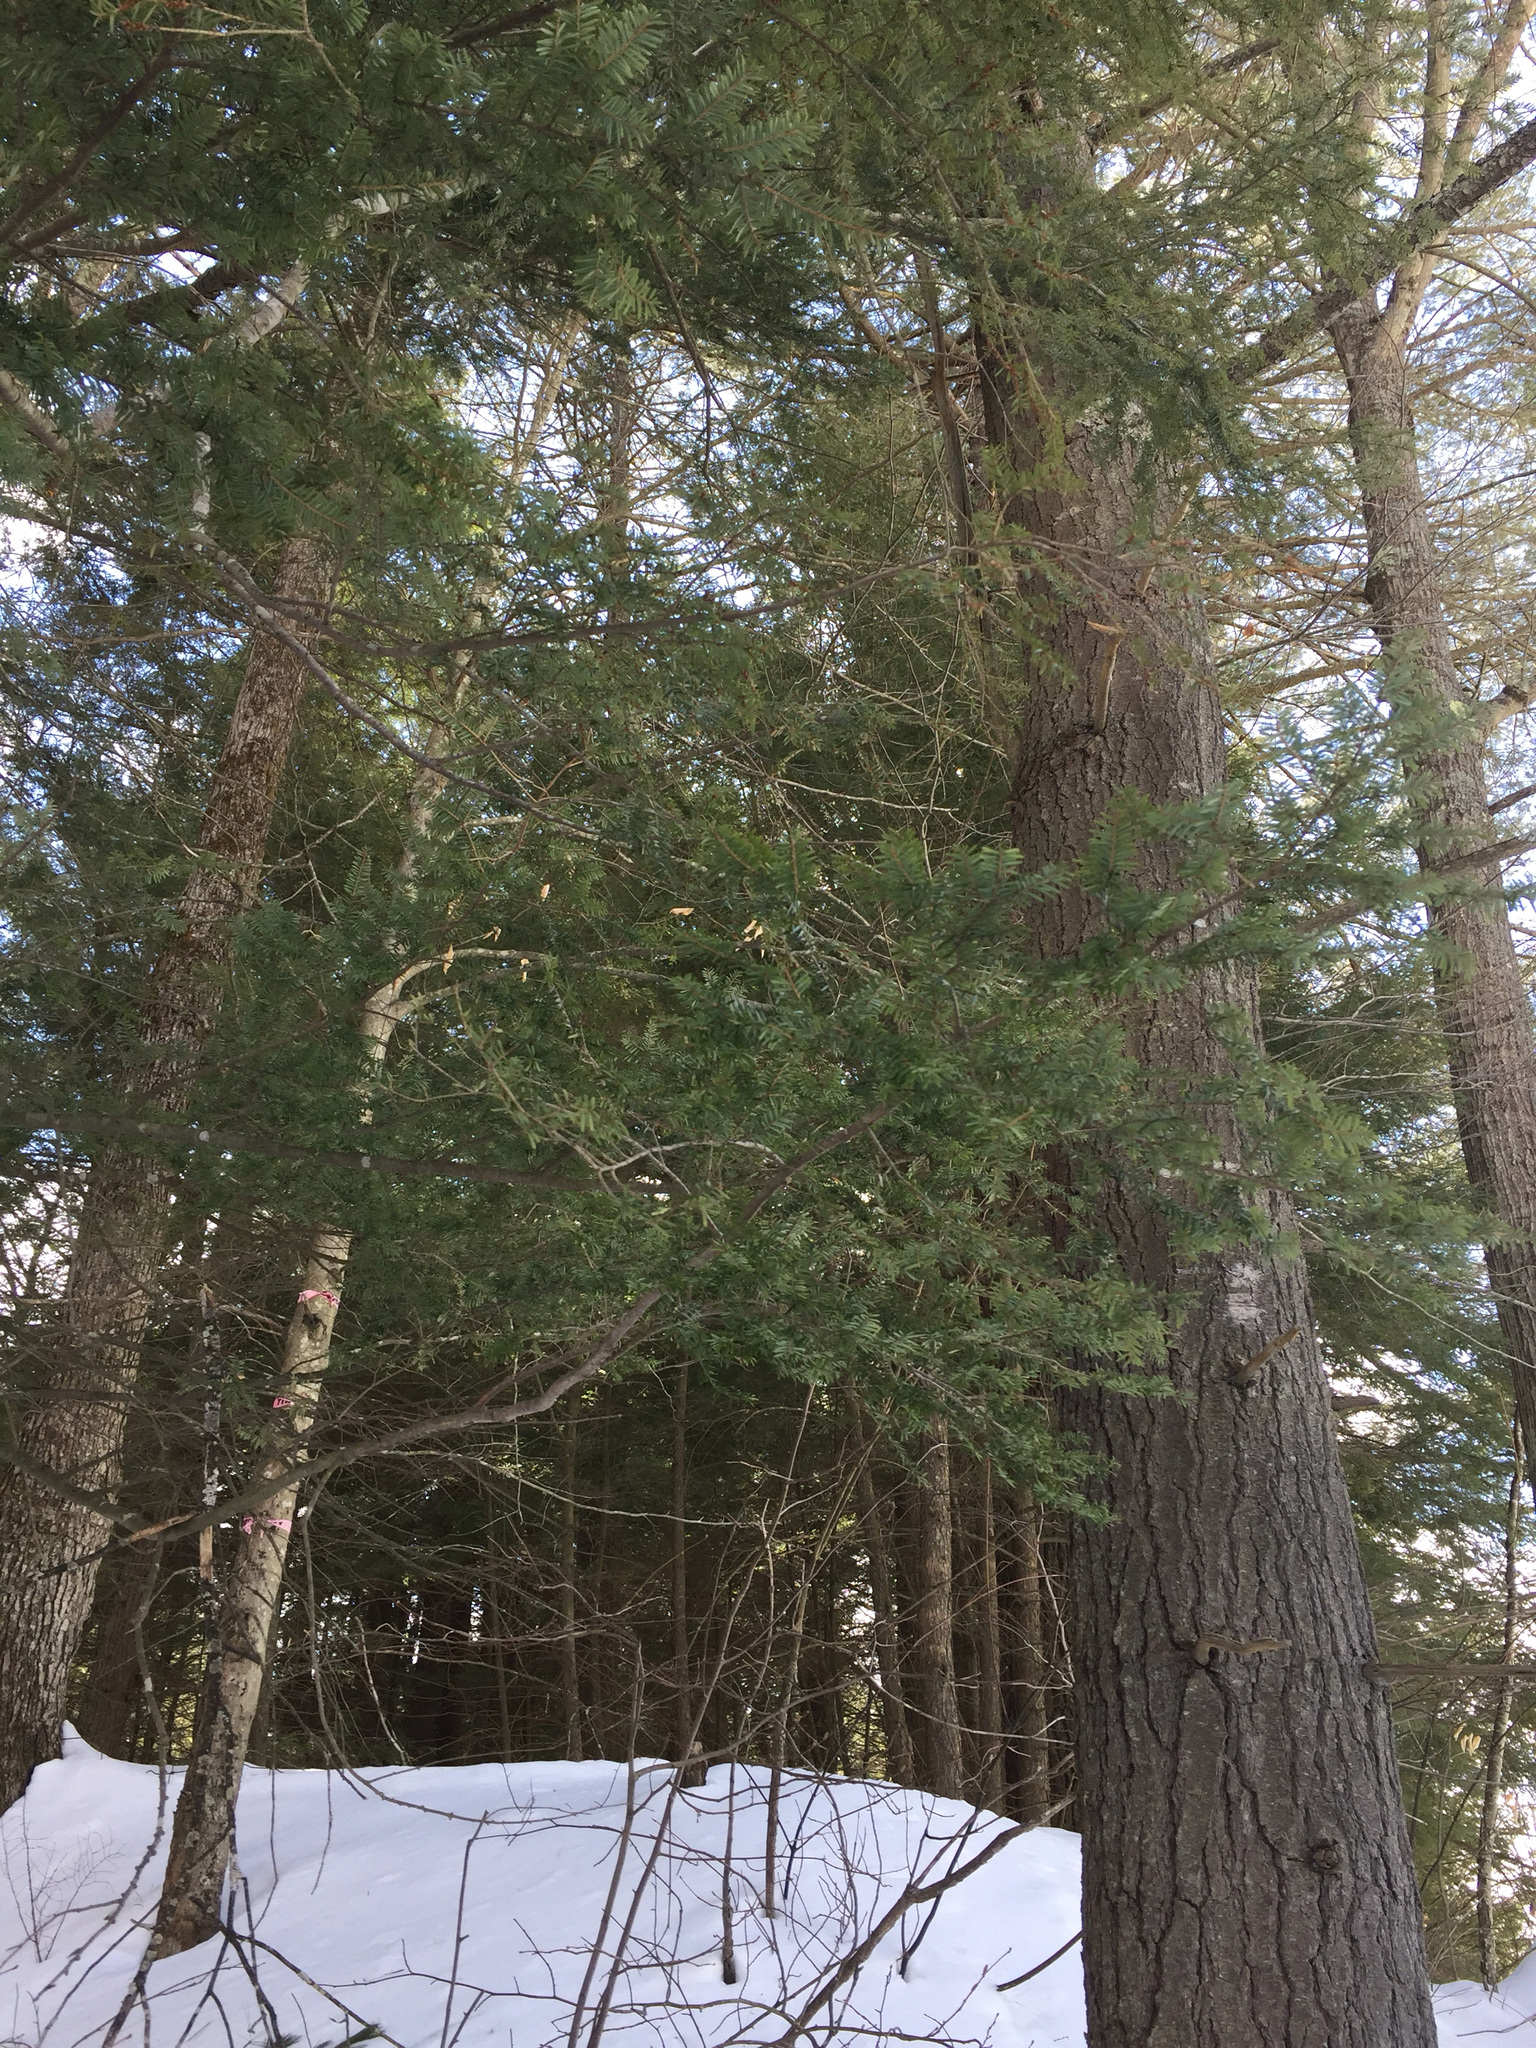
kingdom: Plantae
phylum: Tracheophyta
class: Pinopsida
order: Pinales
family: Pinaceae
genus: Tsuga
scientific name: Tsuga canadensis
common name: Eastern hemlock
